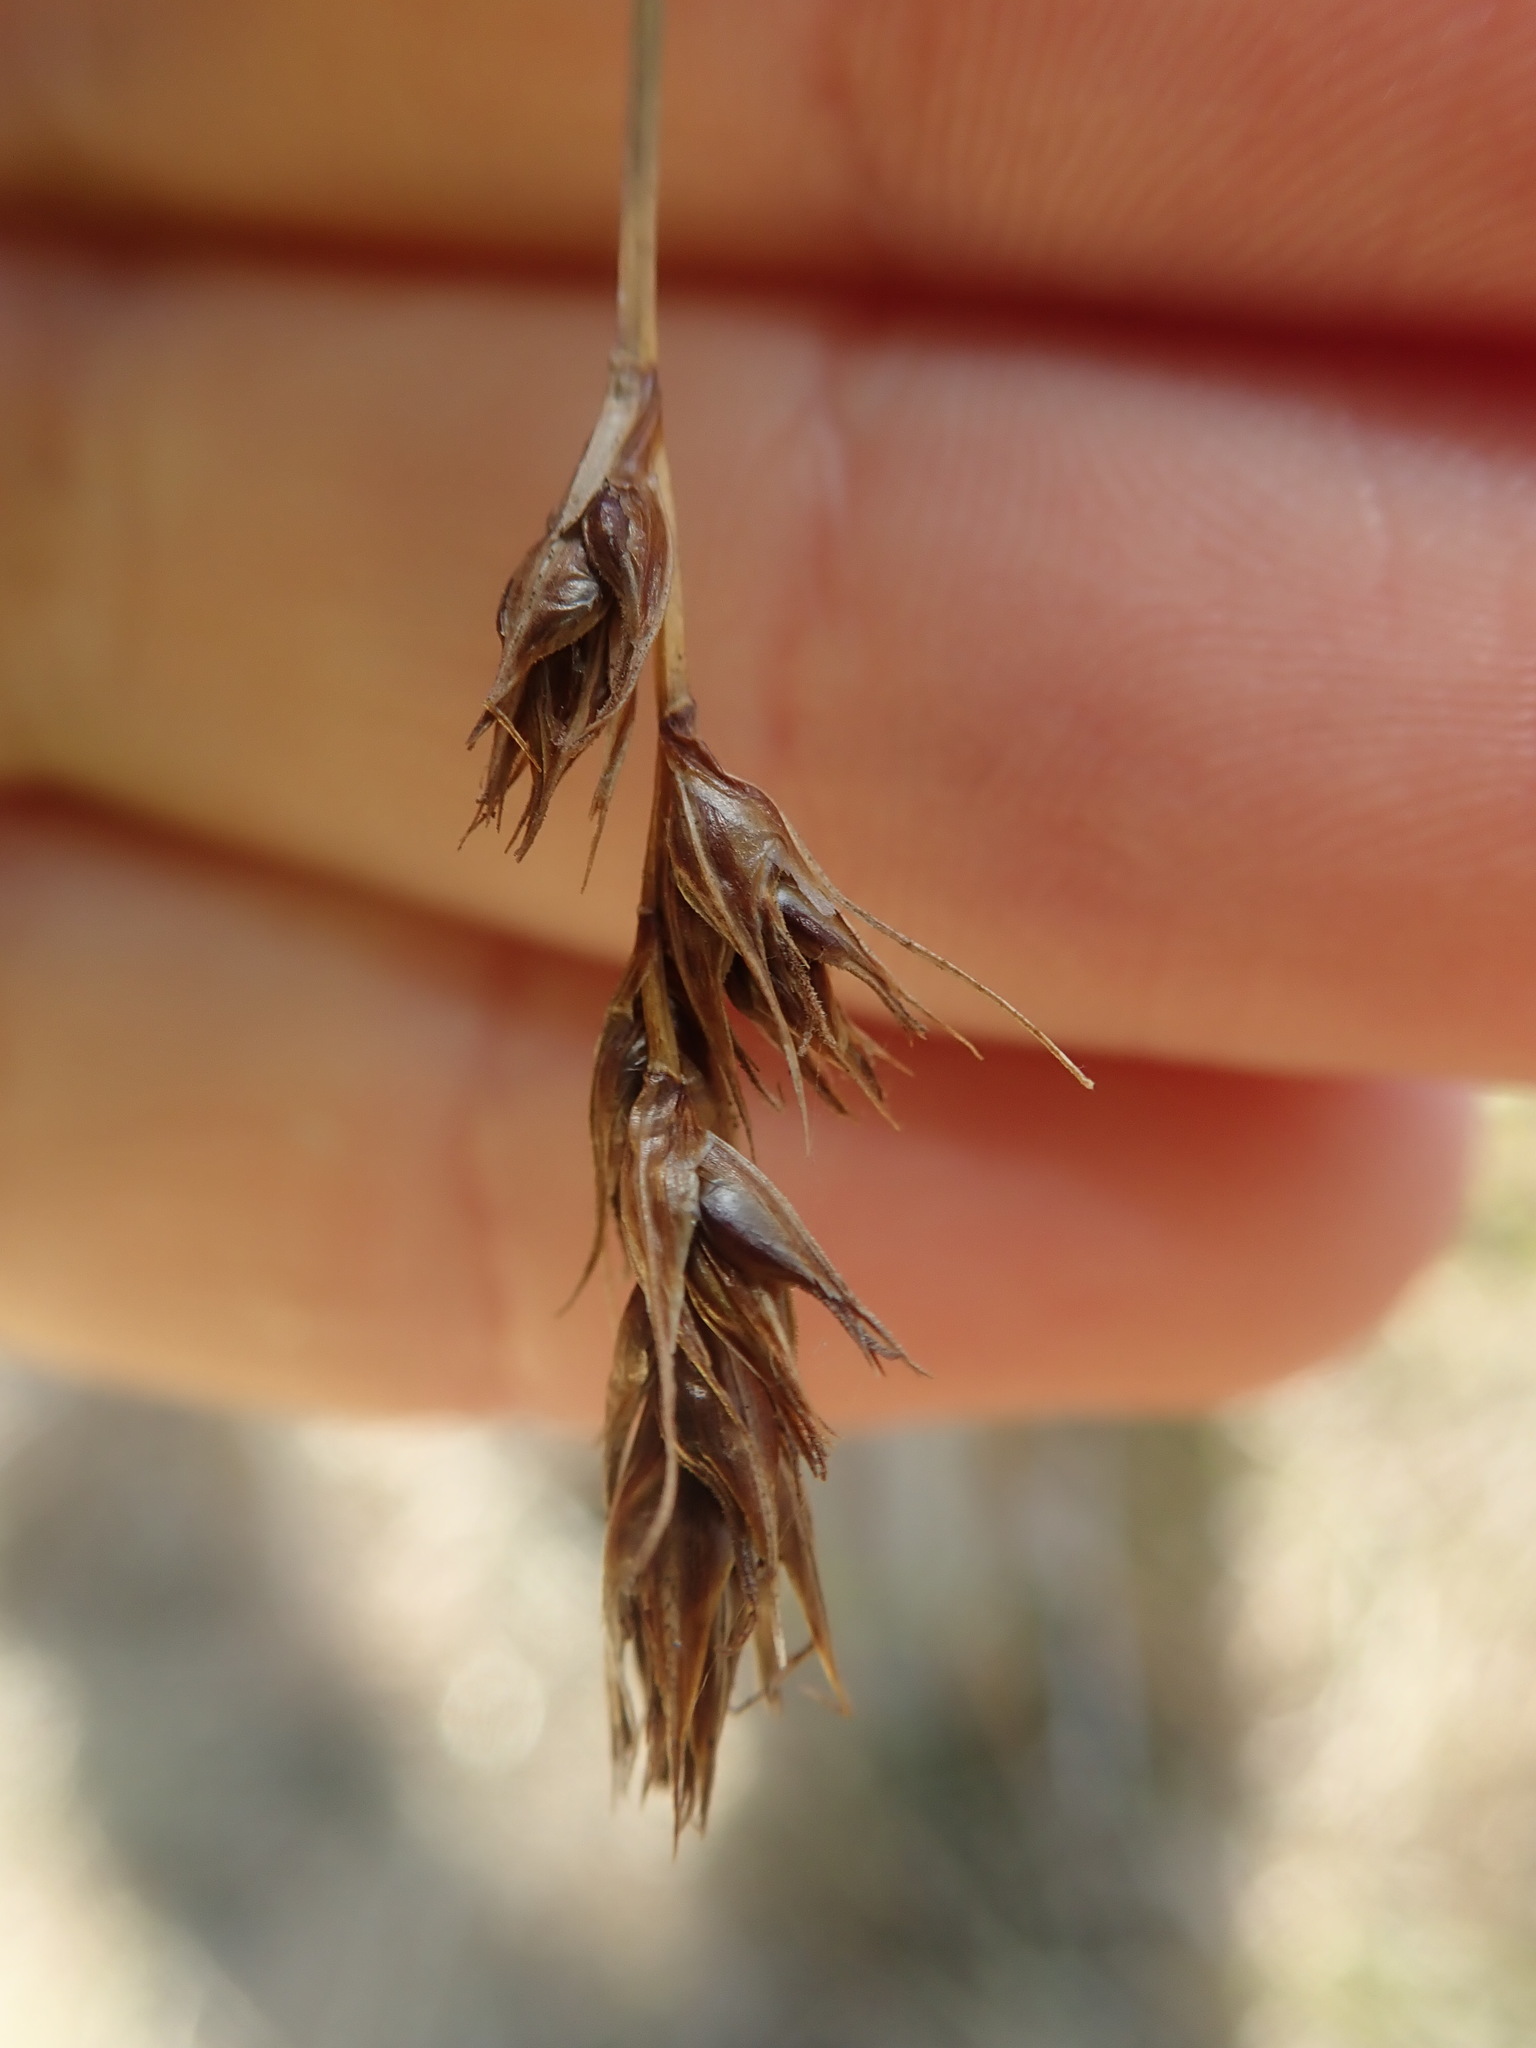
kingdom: Plantae
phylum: Tracheophyta
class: Liliopsida
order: Poales
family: Cyperaceae
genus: Carex
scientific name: Carex tumulicola
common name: Splitawn sedge
